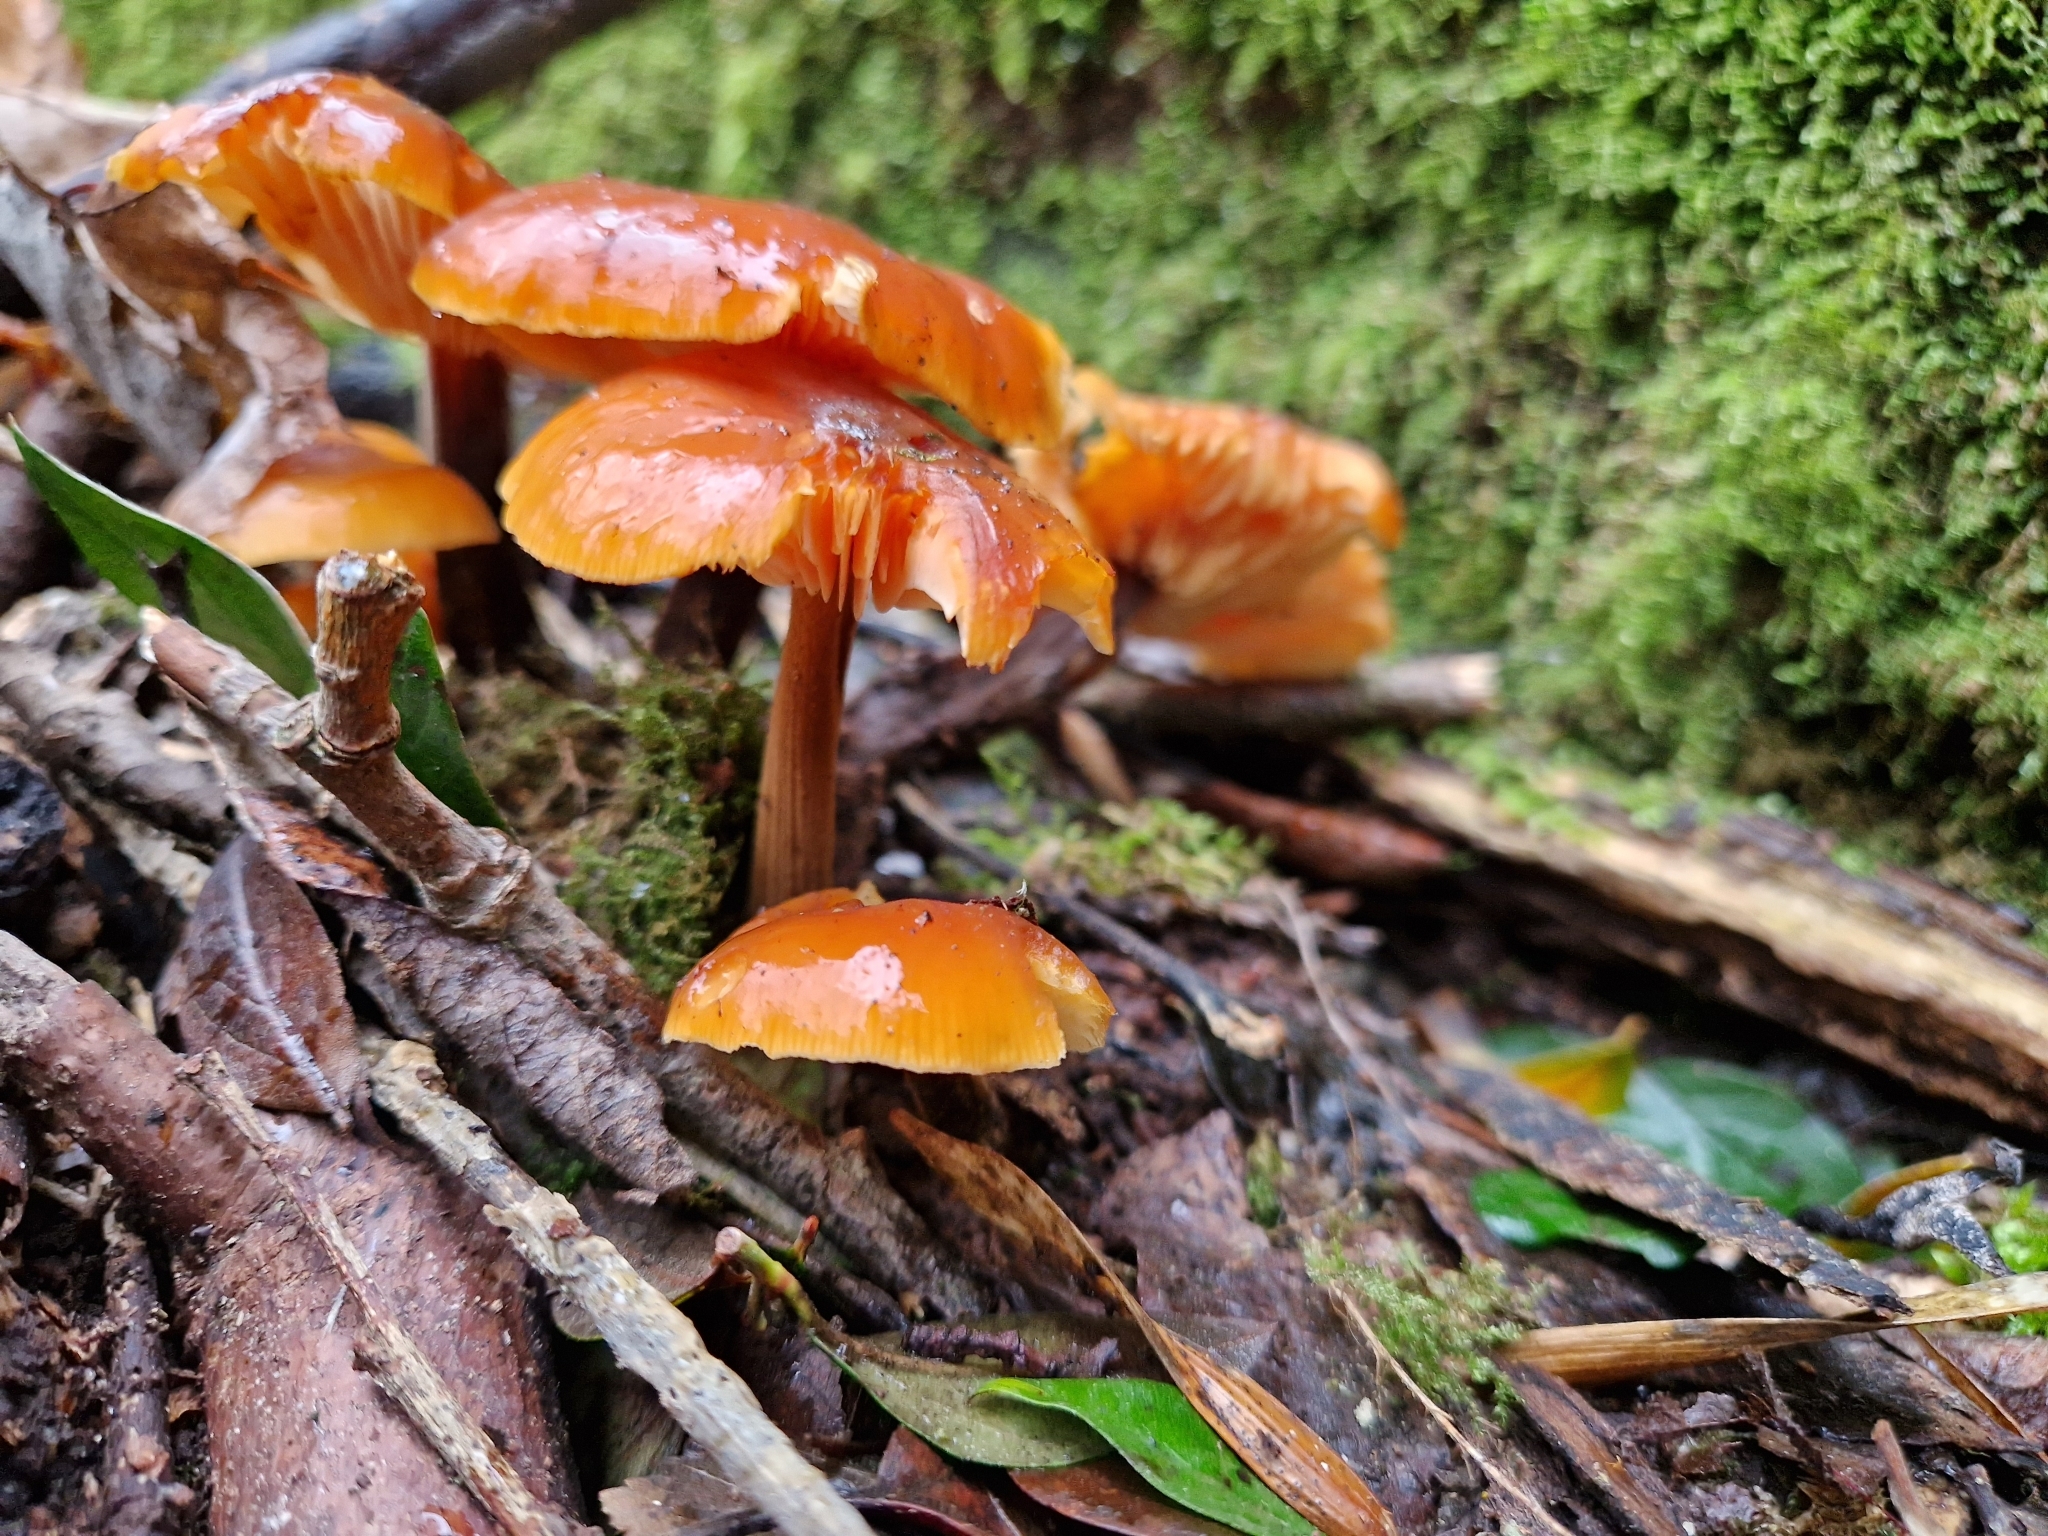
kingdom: Fungi
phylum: Basidiomycota
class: Agaricomycetes
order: Agaricales
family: Physalacriaceae
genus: Flammulina
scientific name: Flammulina
